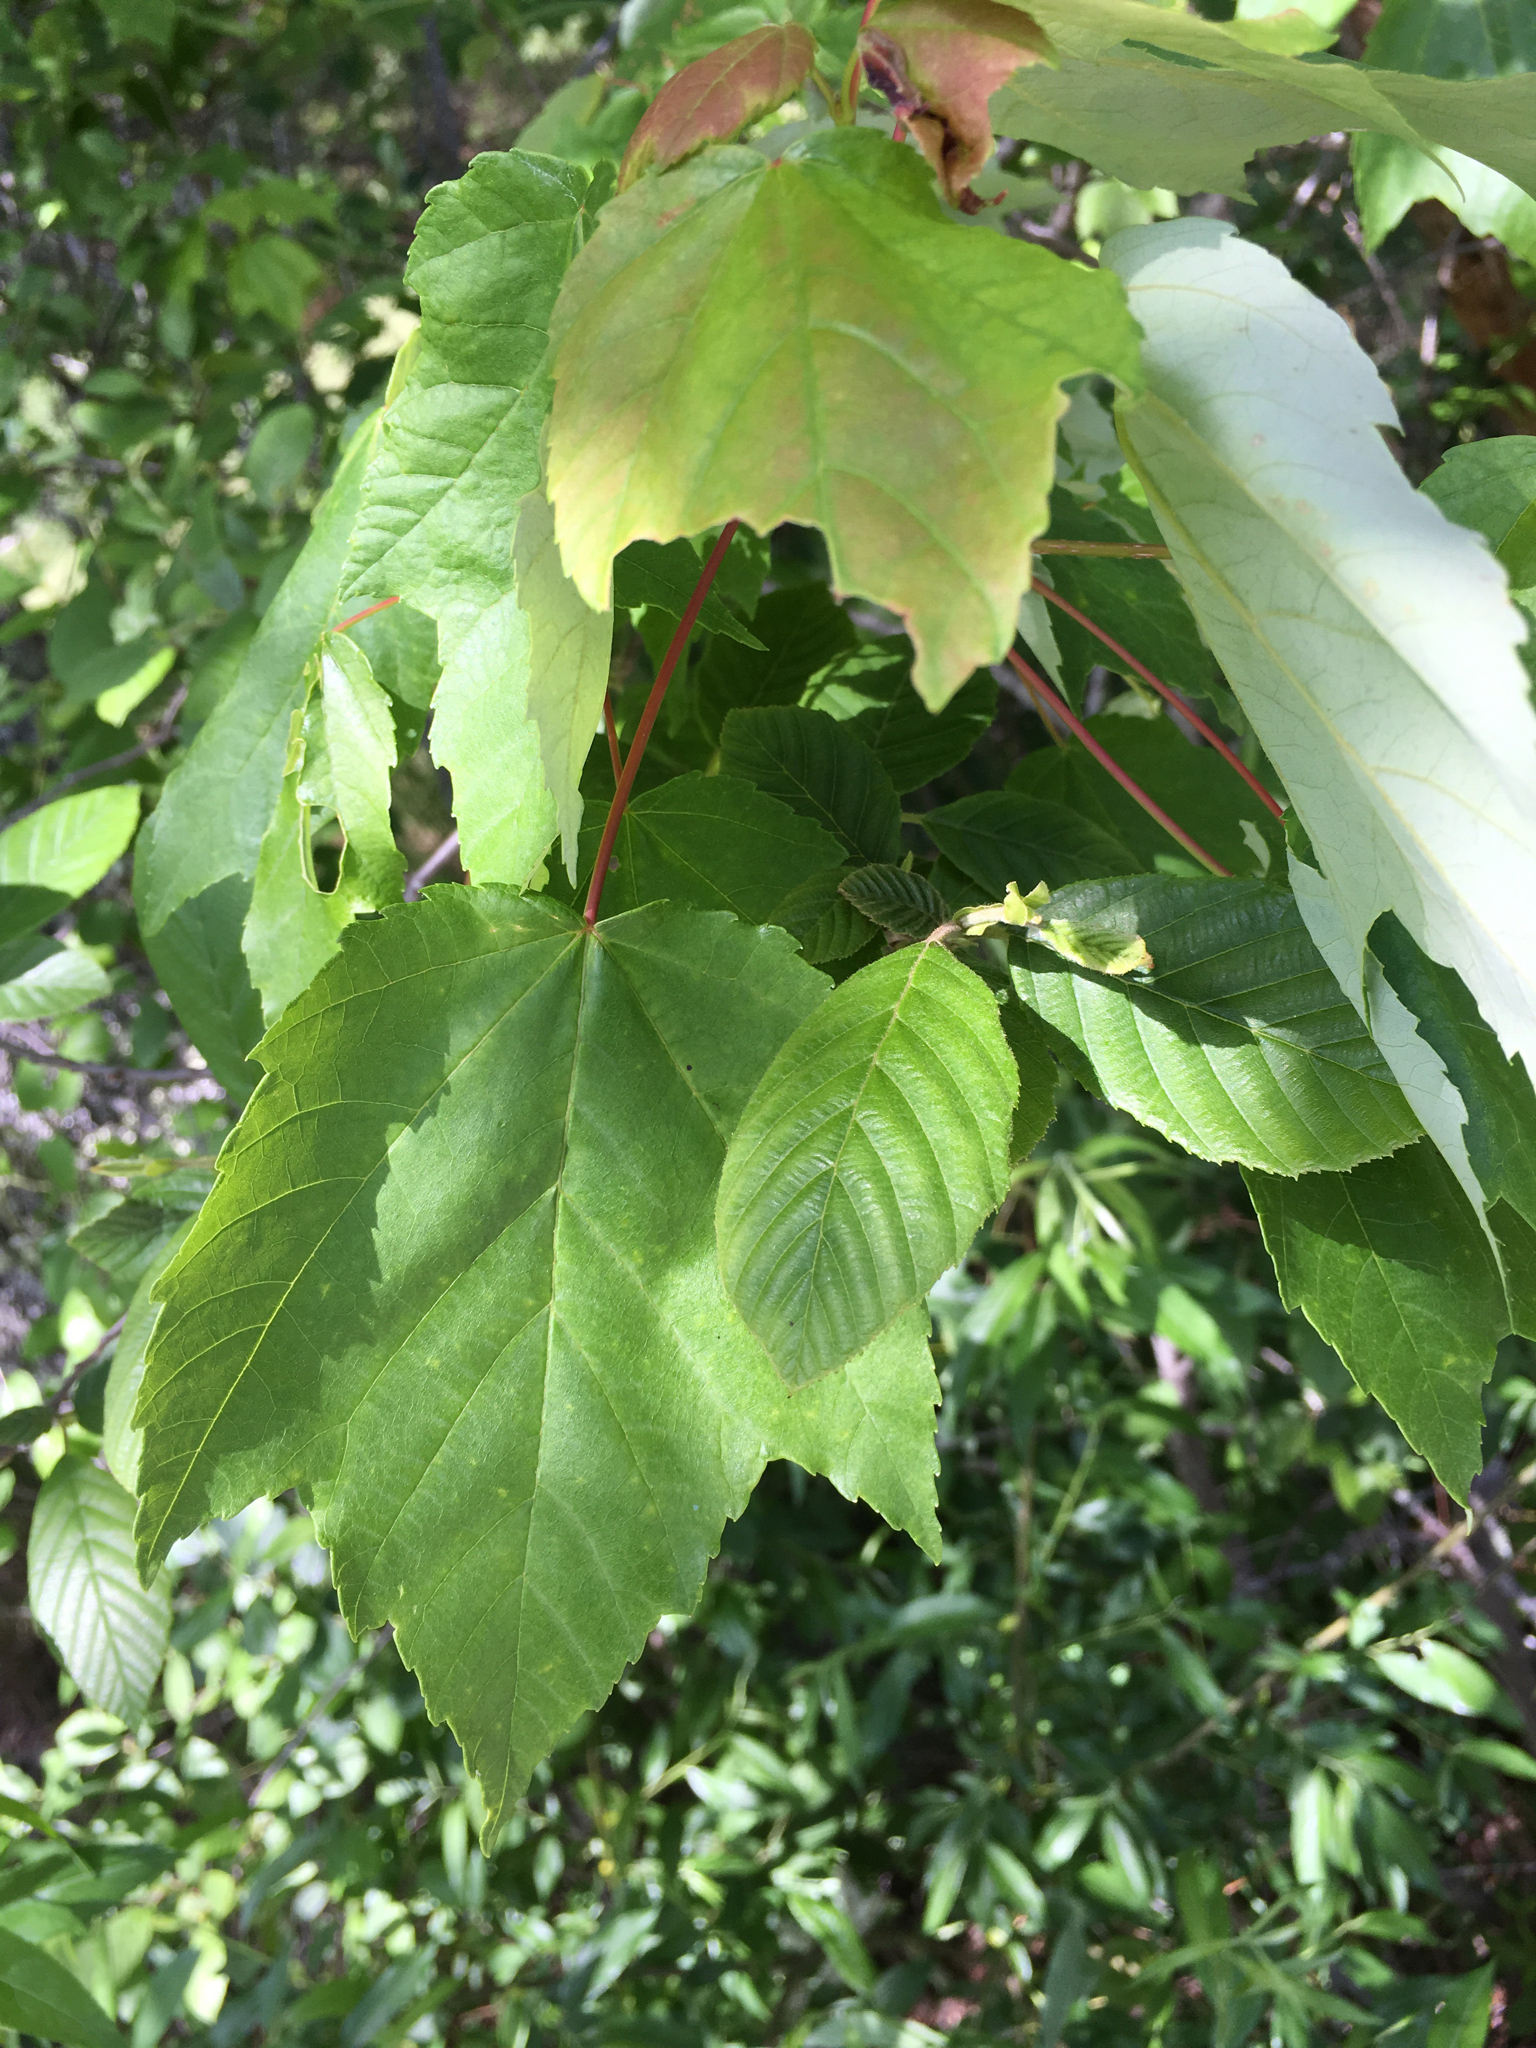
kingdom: Plantae
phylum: Tracheophyta
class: Magnoliopsida
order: Sapindales
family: Sapindaceae
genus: Acer
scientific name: Acer rubrum
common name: Red maple
